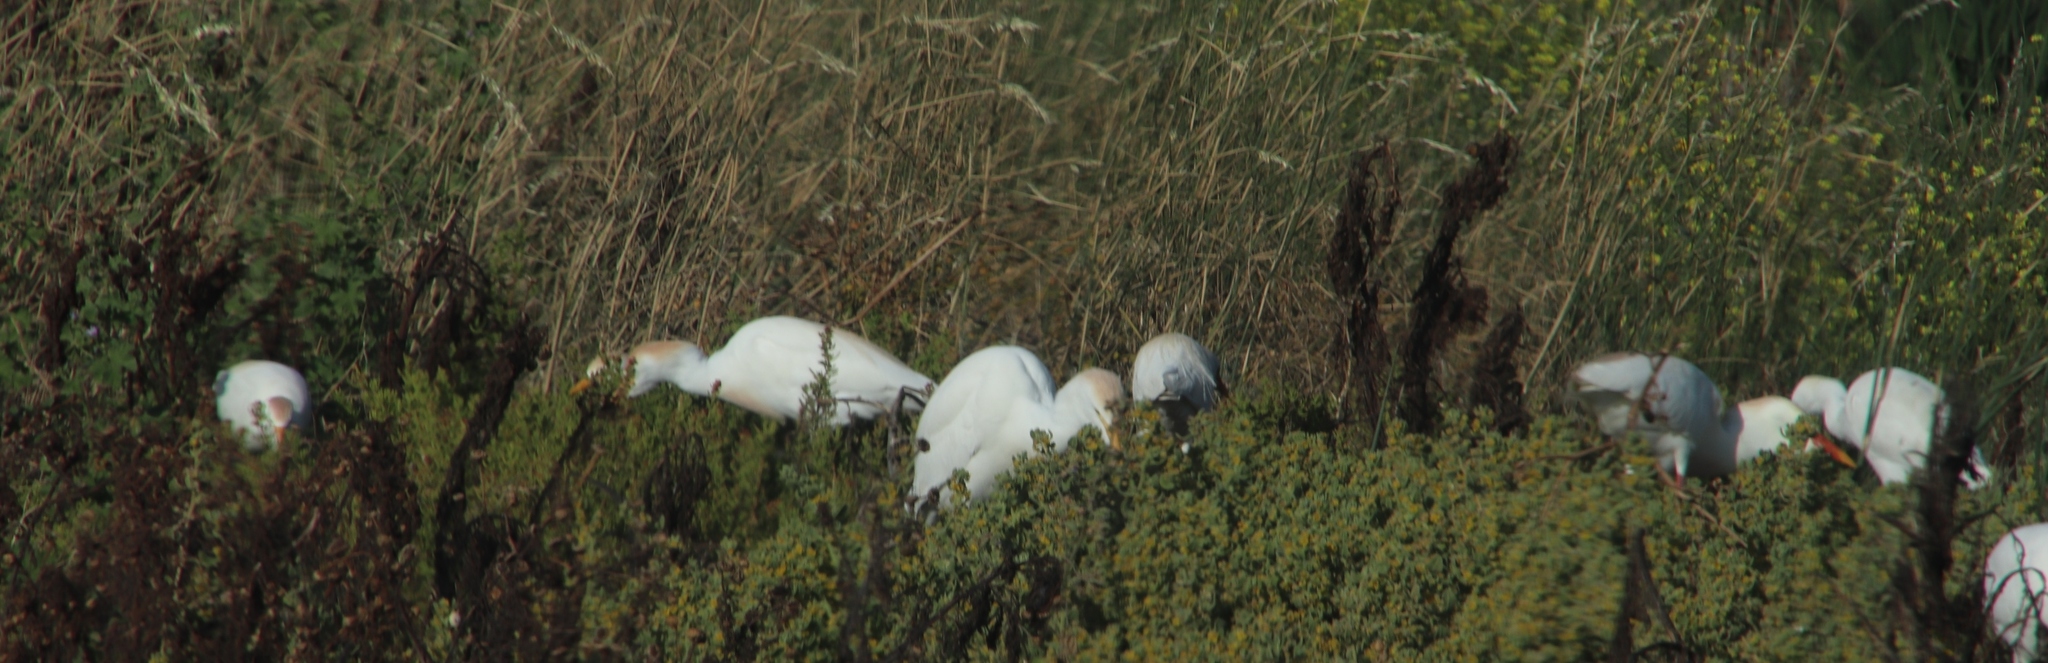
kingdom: Animalia
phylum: Chordata
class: Aves
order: Pelecaniformes
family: Ardeidae
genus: Bubulcus
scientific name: Bubulcus ibis
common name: Cattle egret
